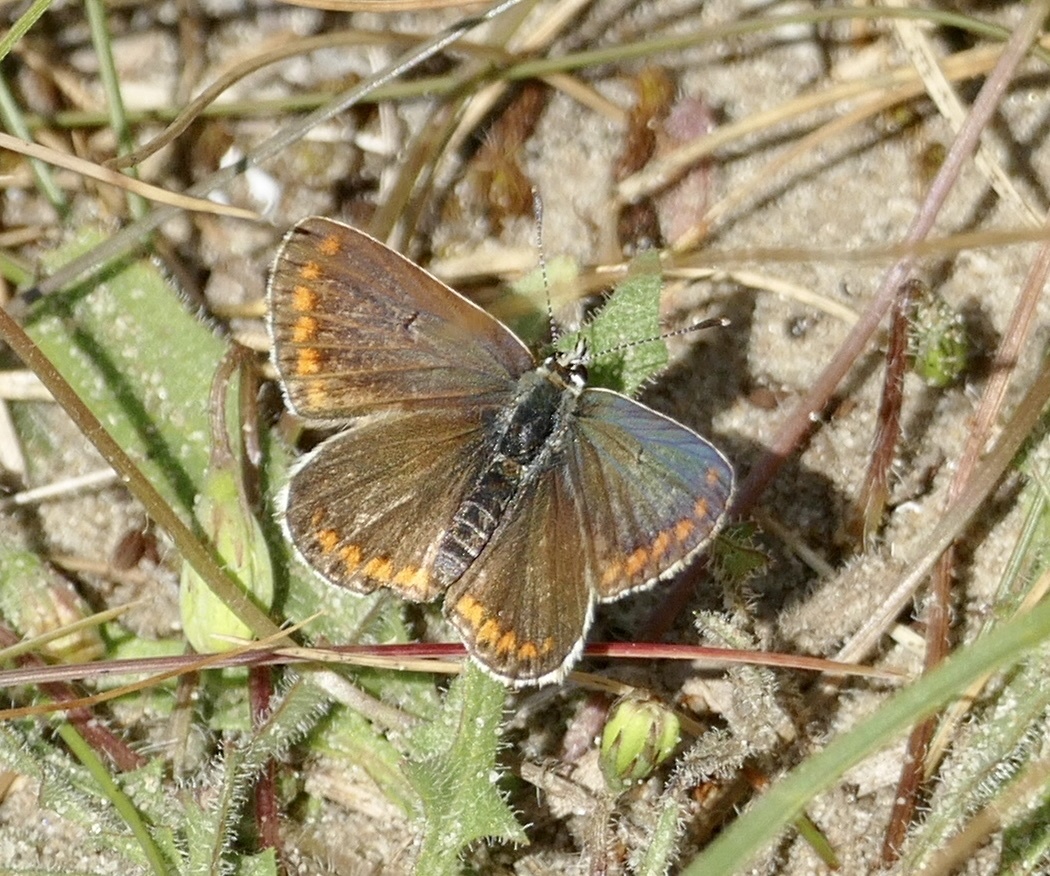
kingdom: Animalia
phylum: Arthropoda
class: Insecta
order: Lepidoptera
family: Lycaenidae
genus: Aricia
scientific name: Aricia agestis
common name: Brown argus
